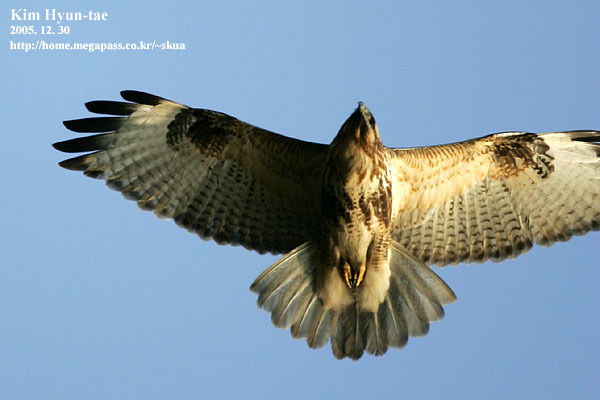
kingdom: Animalia
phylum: Chordata
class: Aves
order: Accipitriformes
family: Accipitridae
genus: Buteo
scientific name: Buteo japonicus
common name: Eastern buzzard
